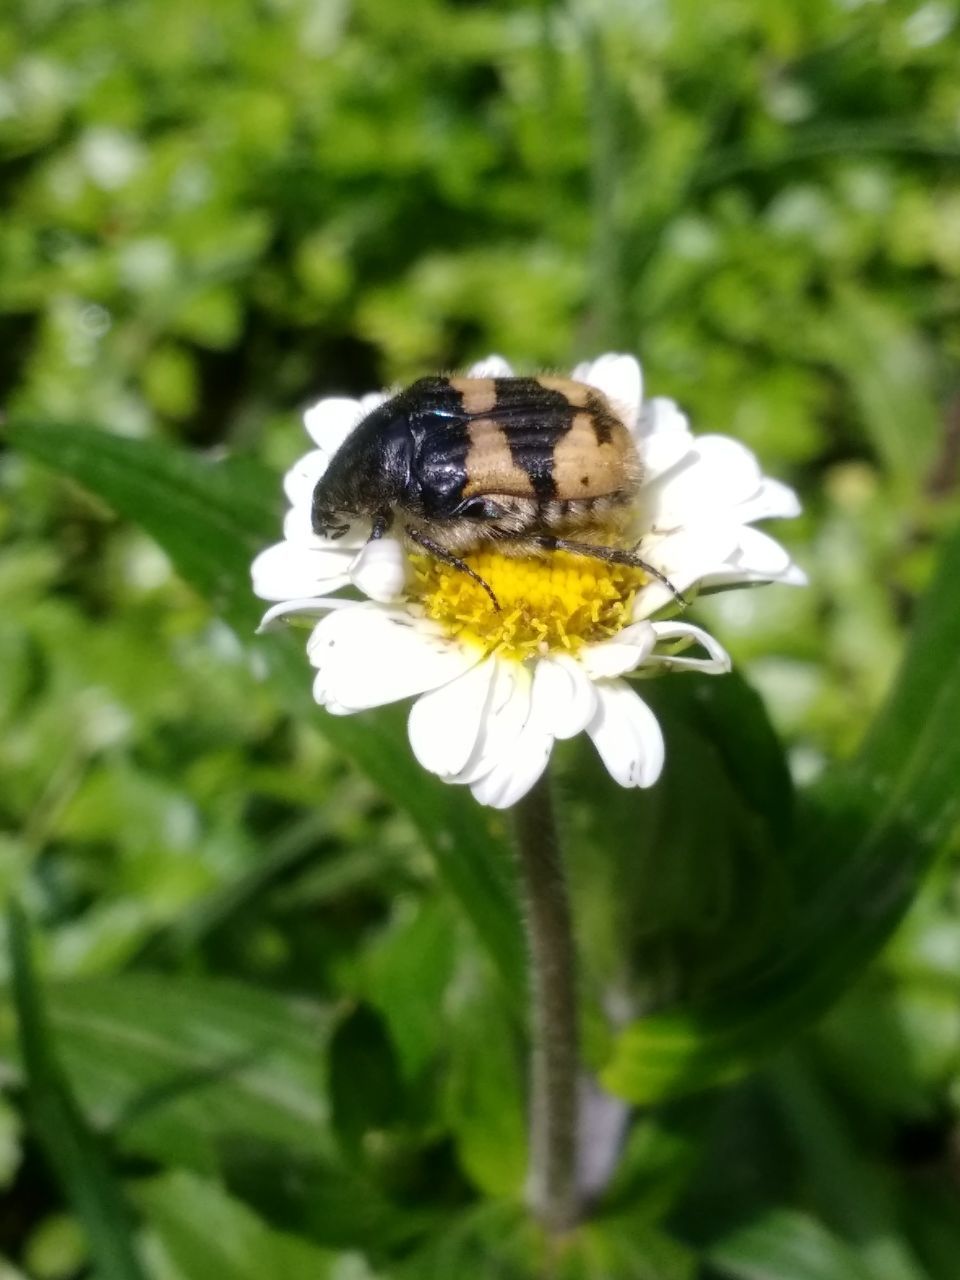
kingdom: Animalia
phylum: Arthropoda
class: Insecta
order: Coleoptera
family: Scarabaeidae
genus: Euphoria
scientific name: Euphoria basalis
